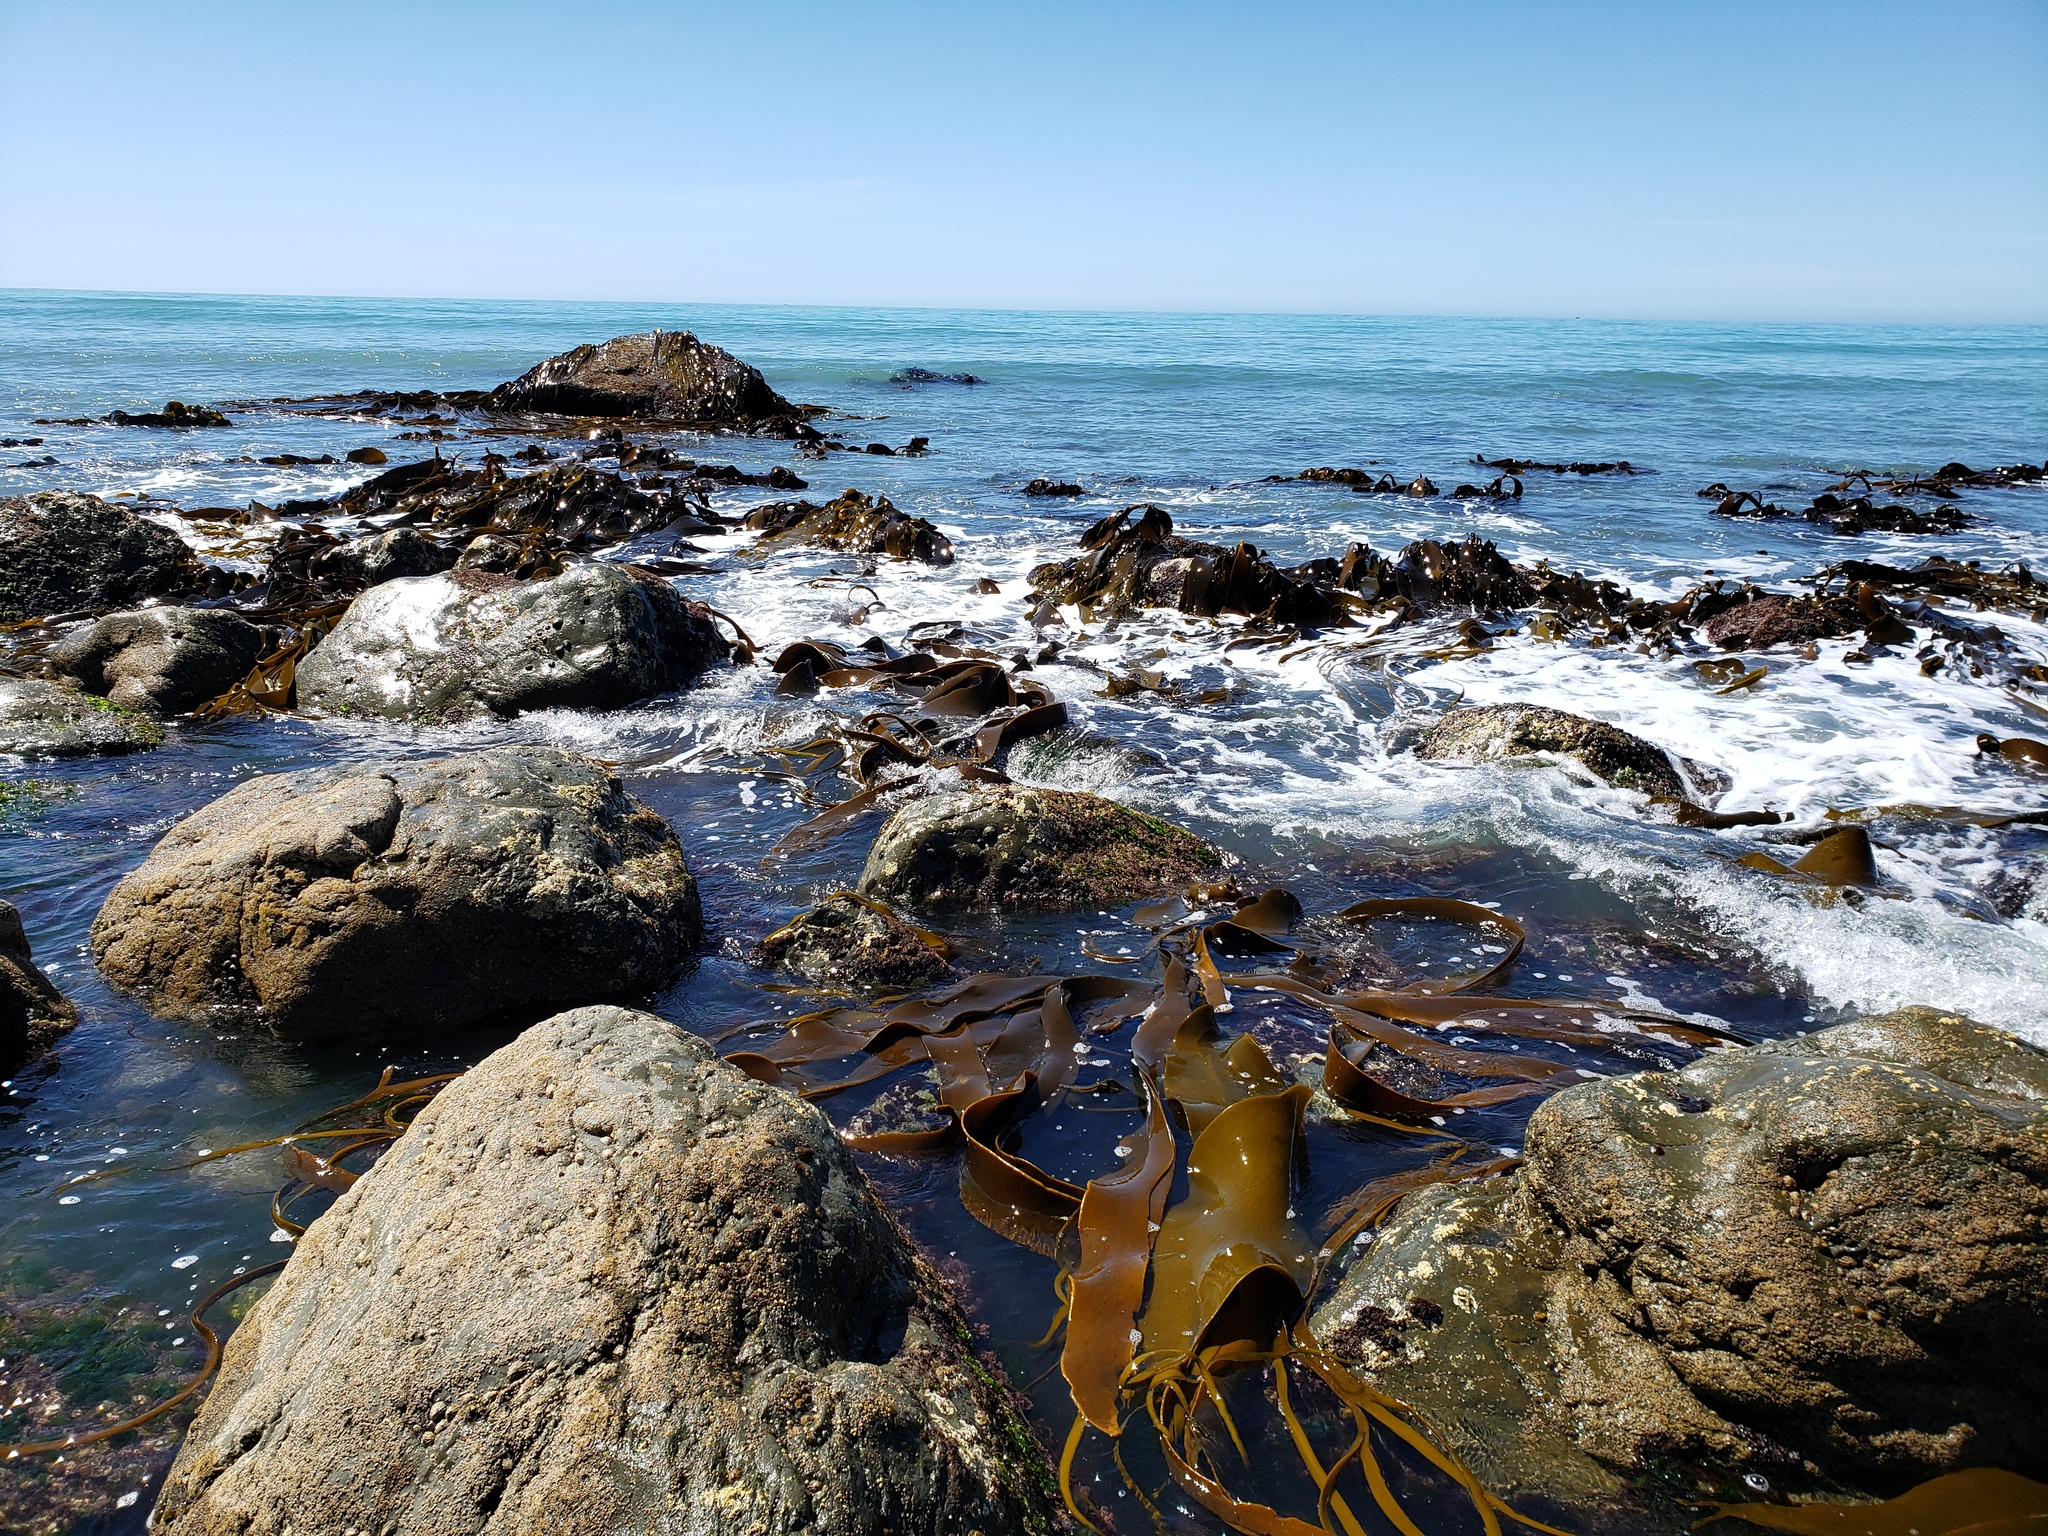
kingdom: Chromista
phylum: Ochrophyta
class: Phaeophyceae
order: Fucales
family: Durvillaeaceae
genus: Durvillaea
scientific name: Durvillaea antarctica
